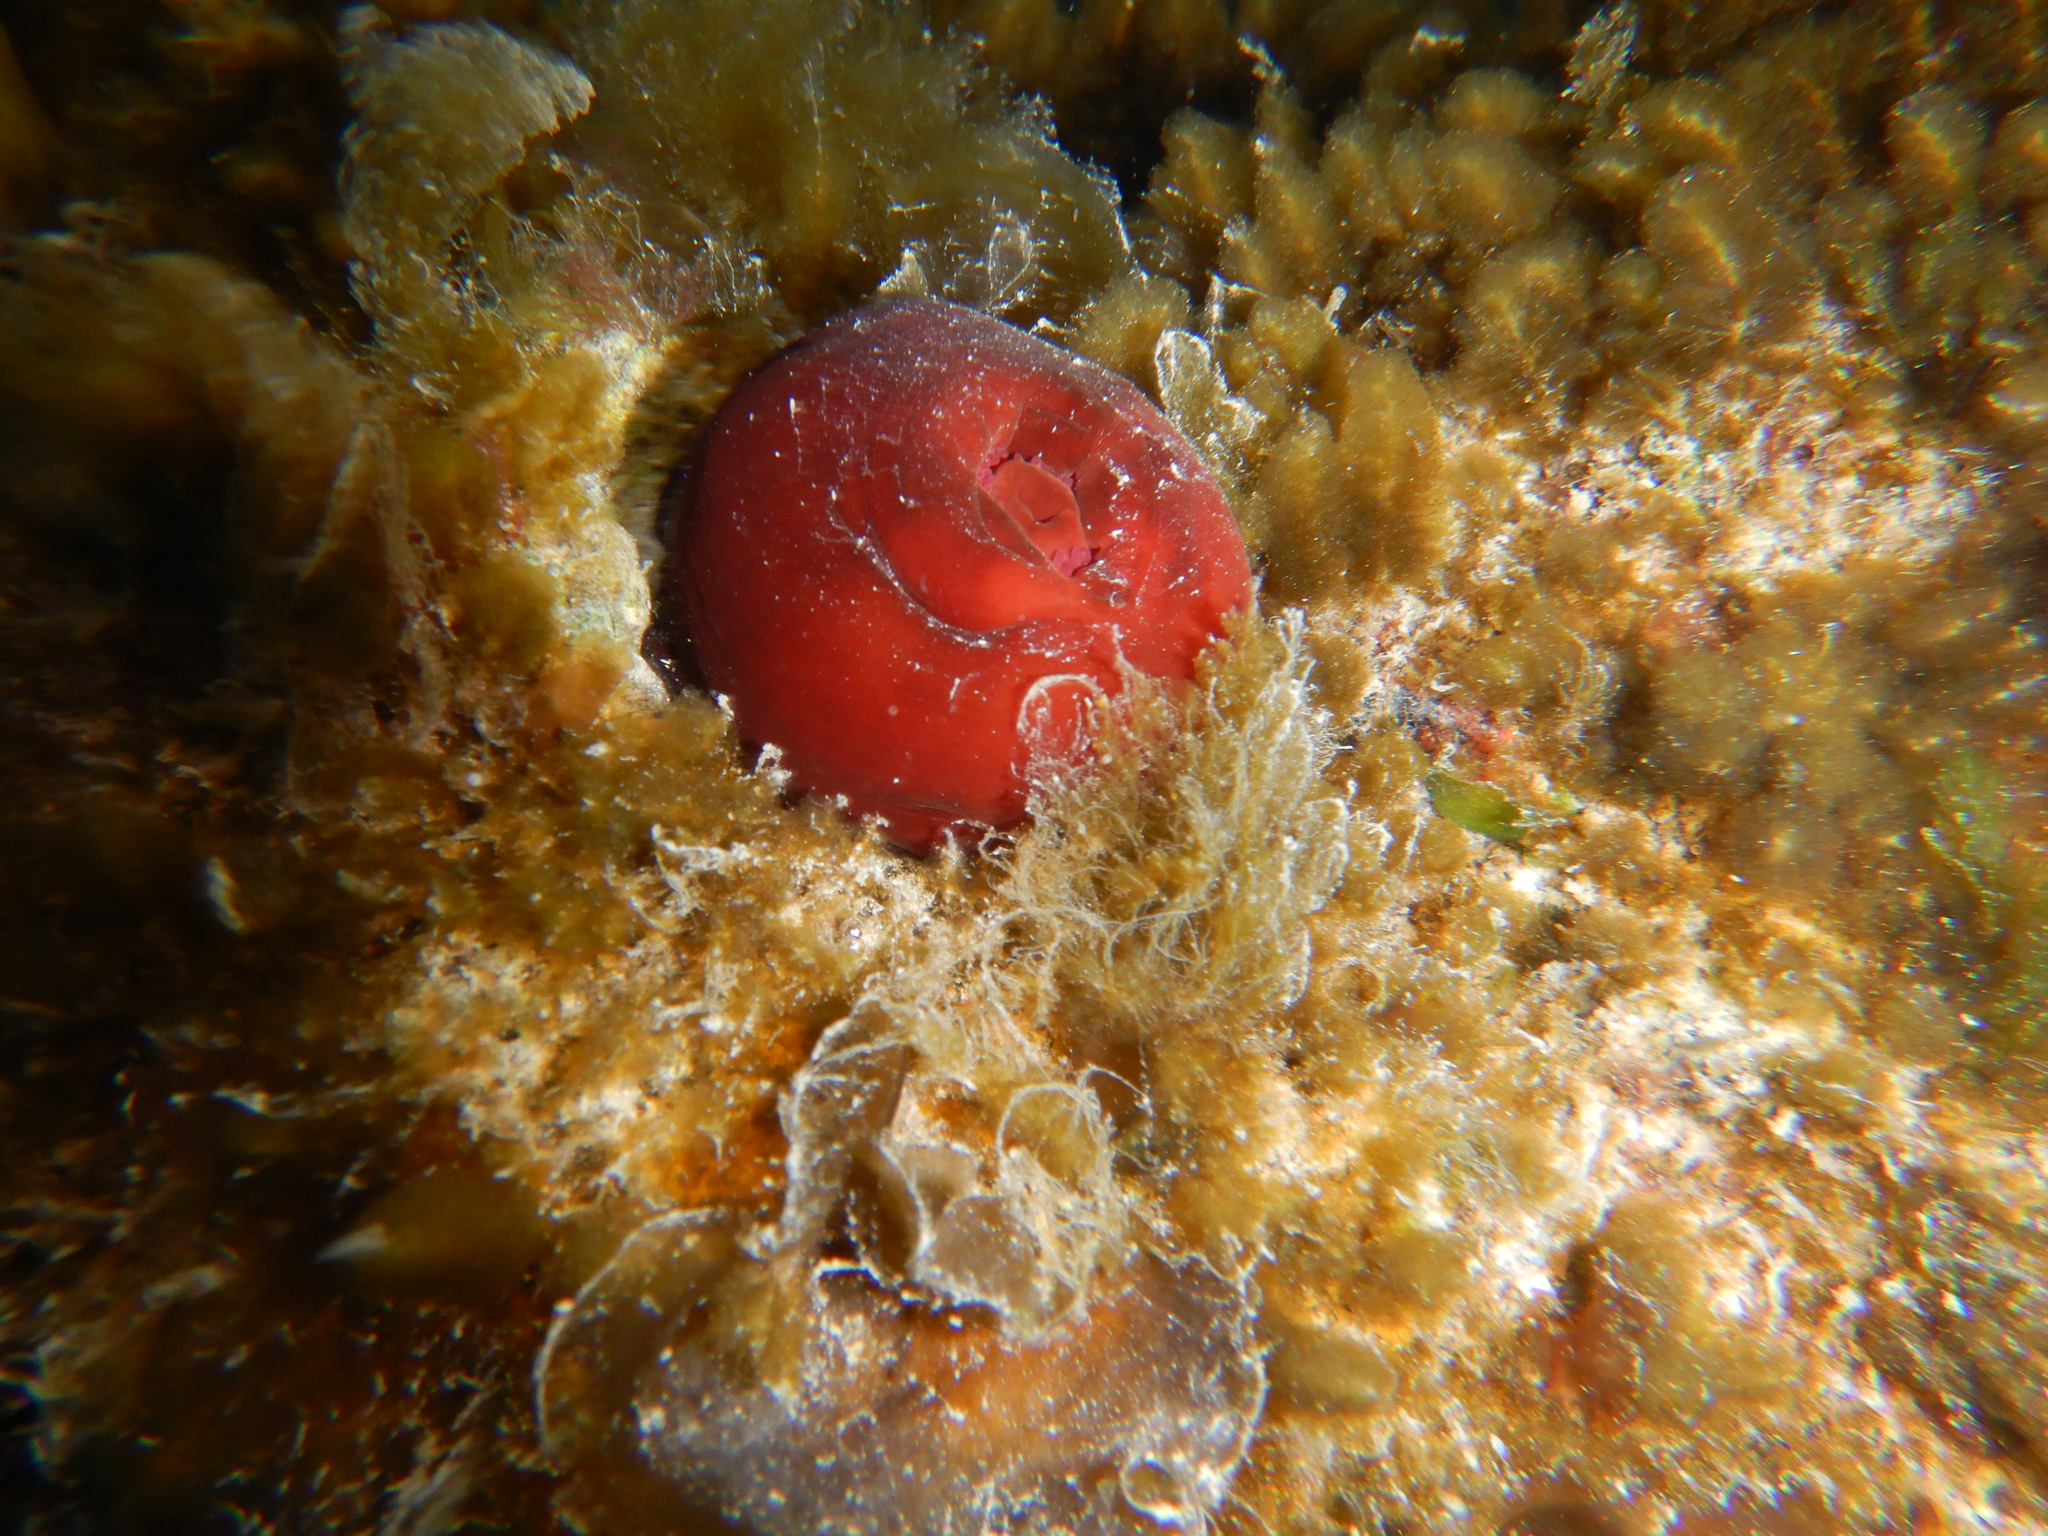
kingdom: Animalia
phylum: Cnidaria
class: Anthozoa
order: Actiniaria
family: Actiniidae
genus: Actinia
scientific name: Actinia mediterranea
